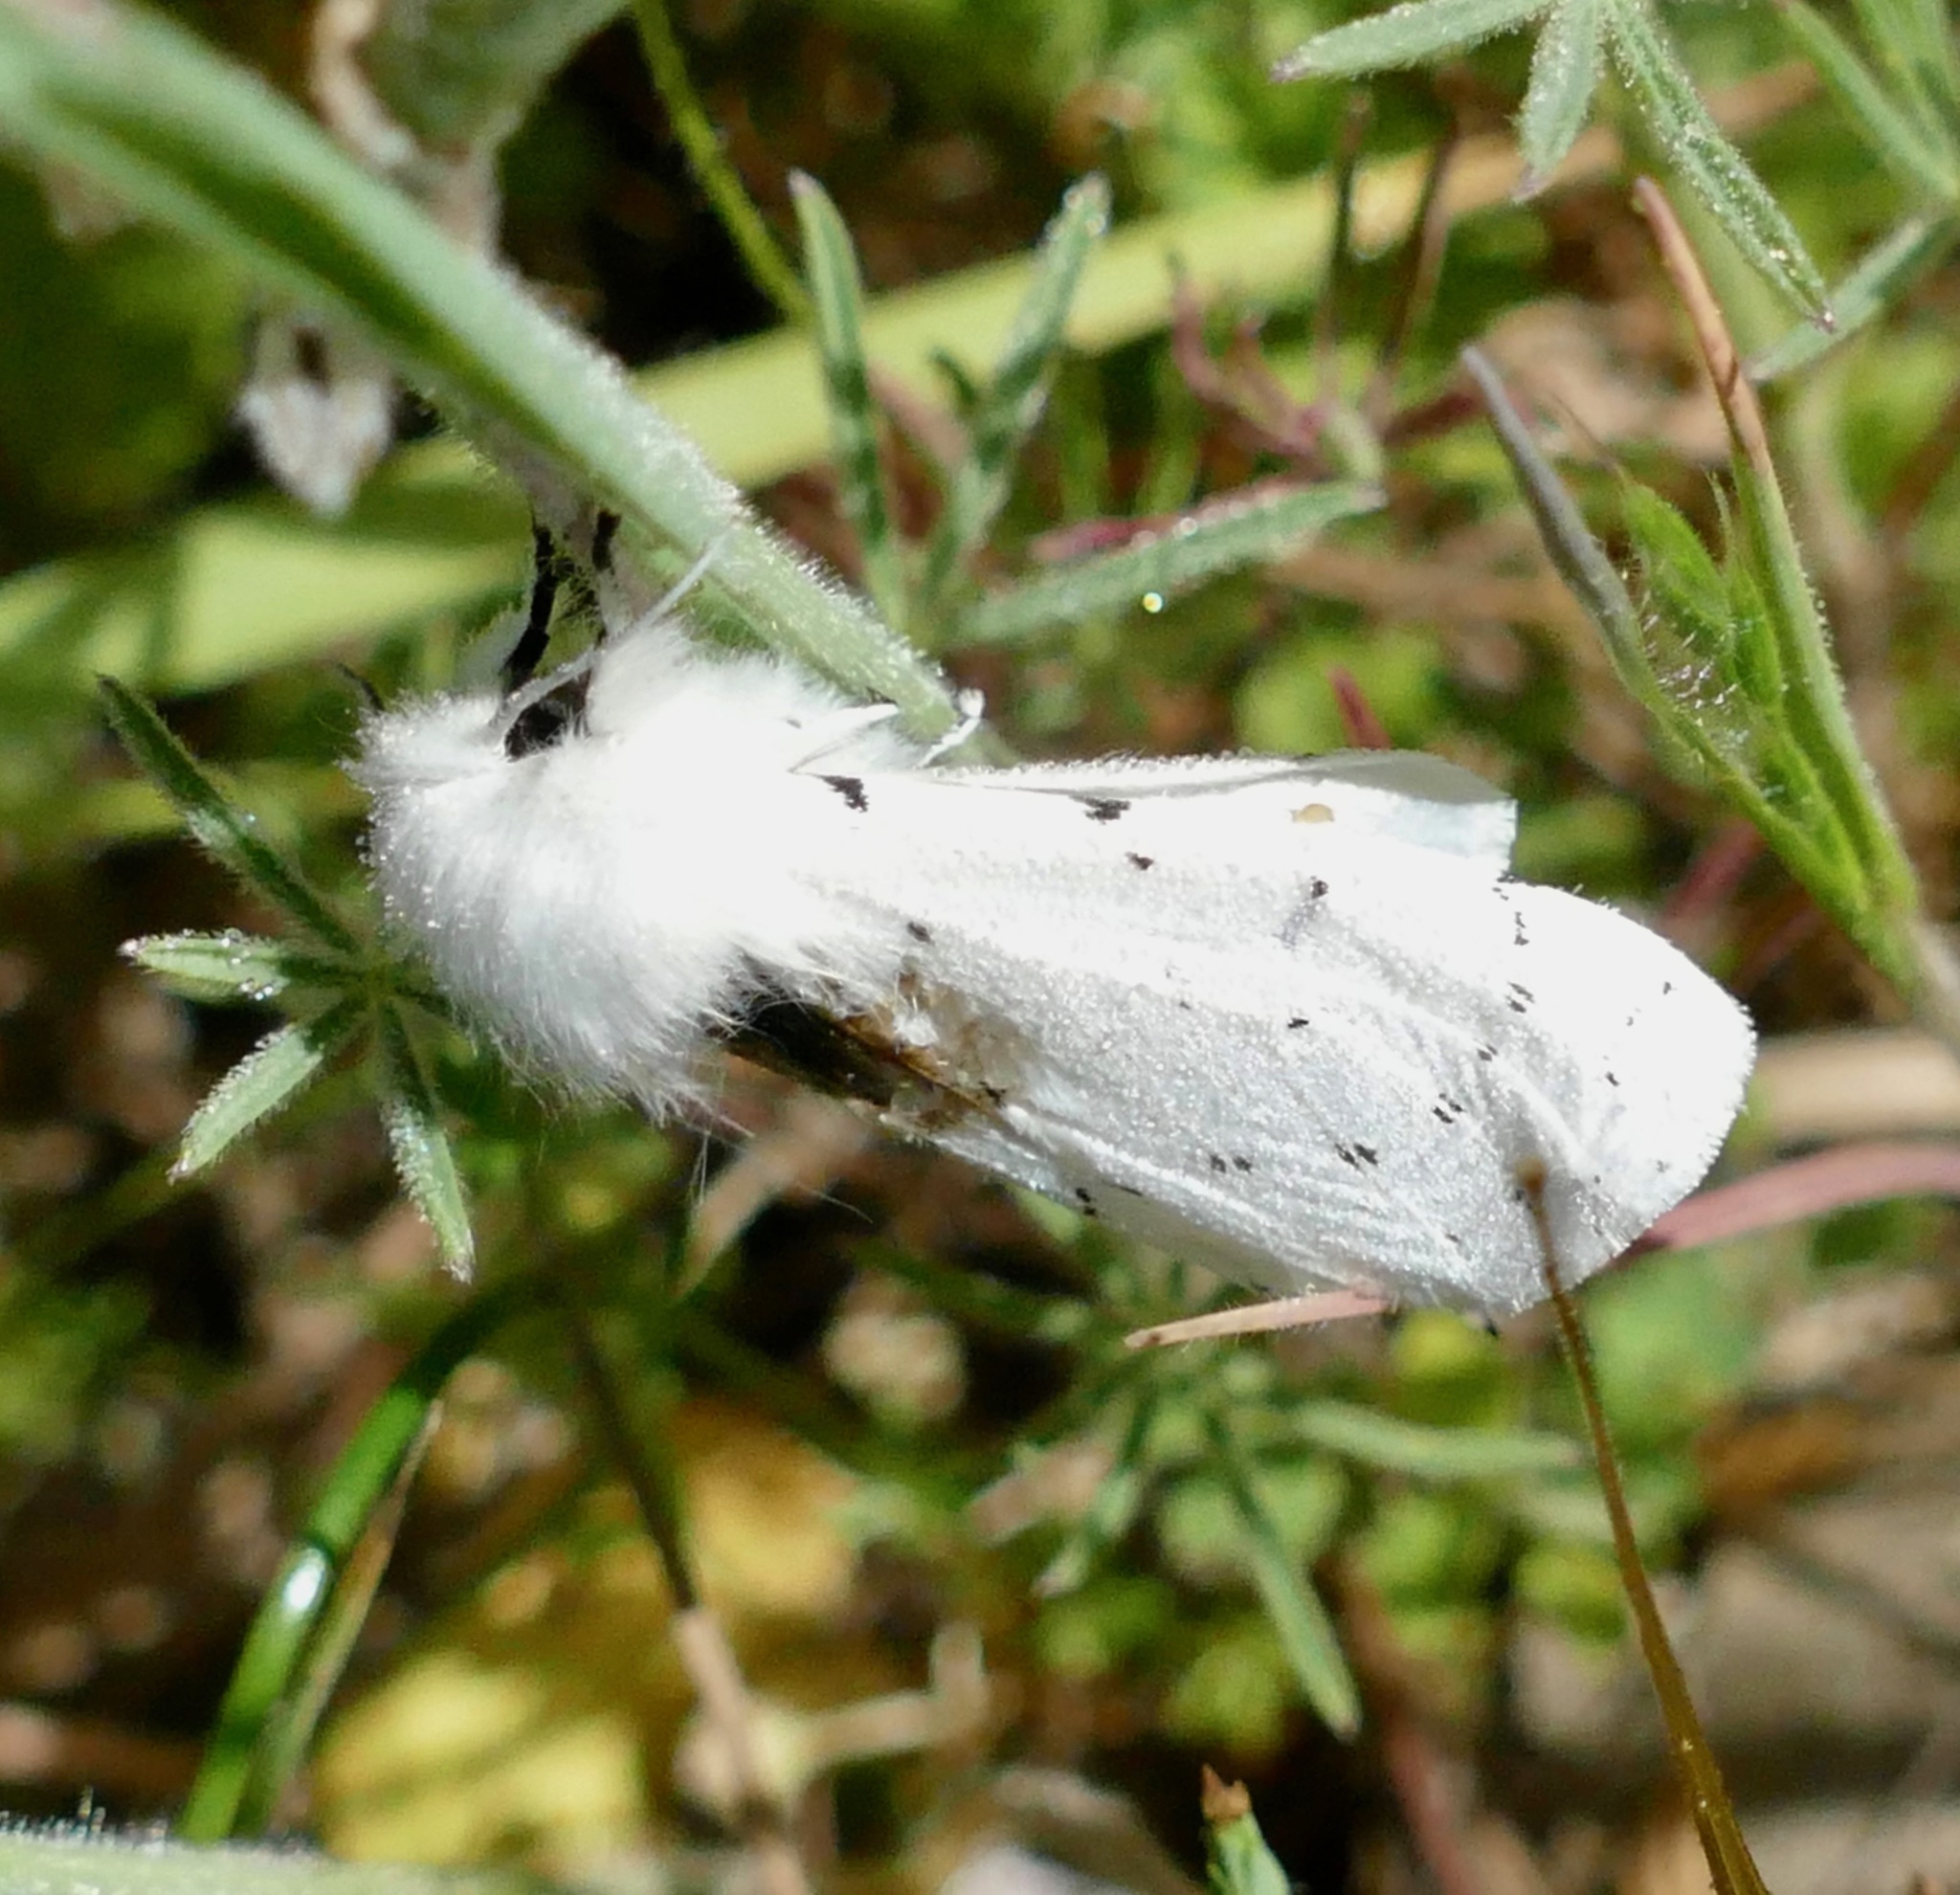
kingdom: Animalia
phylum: Arthropoda
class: Insecta
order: Lepidoptera
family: Erebidae
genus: Spilosoma
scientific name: Spilosoma vestalis
